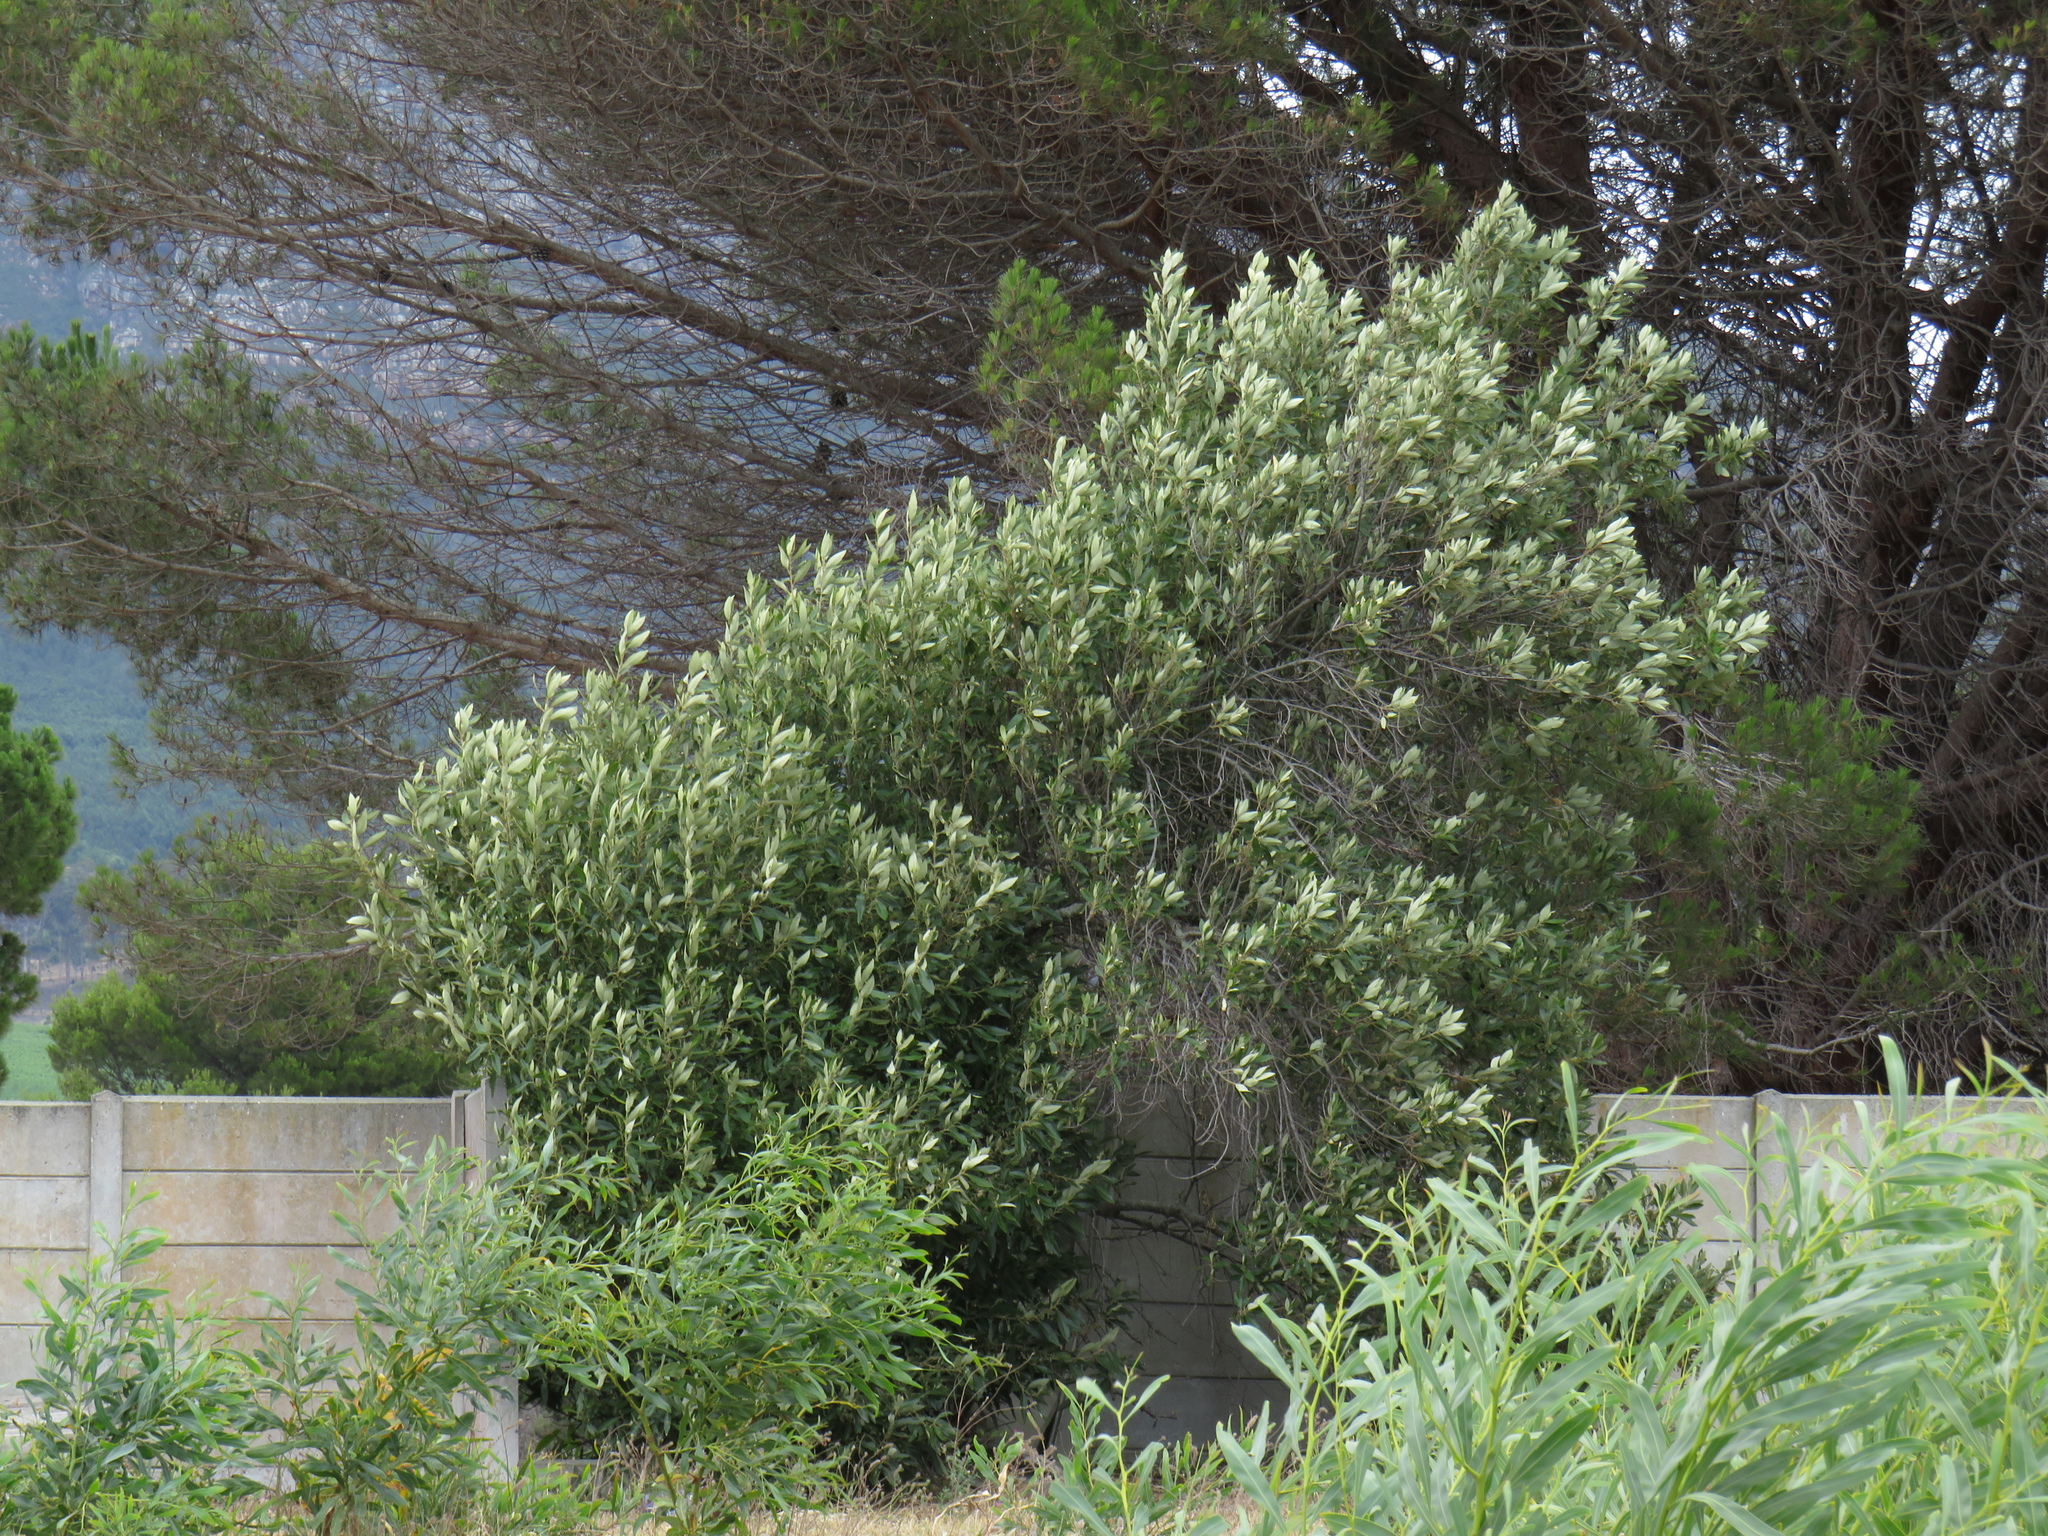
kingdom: Plantae
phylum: Tracheophyta
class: Magnoliopsida
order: Malpighiales
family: Achariaceae
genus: Kiggelaria
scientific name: Kiggelaria africana
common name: Wild peach
